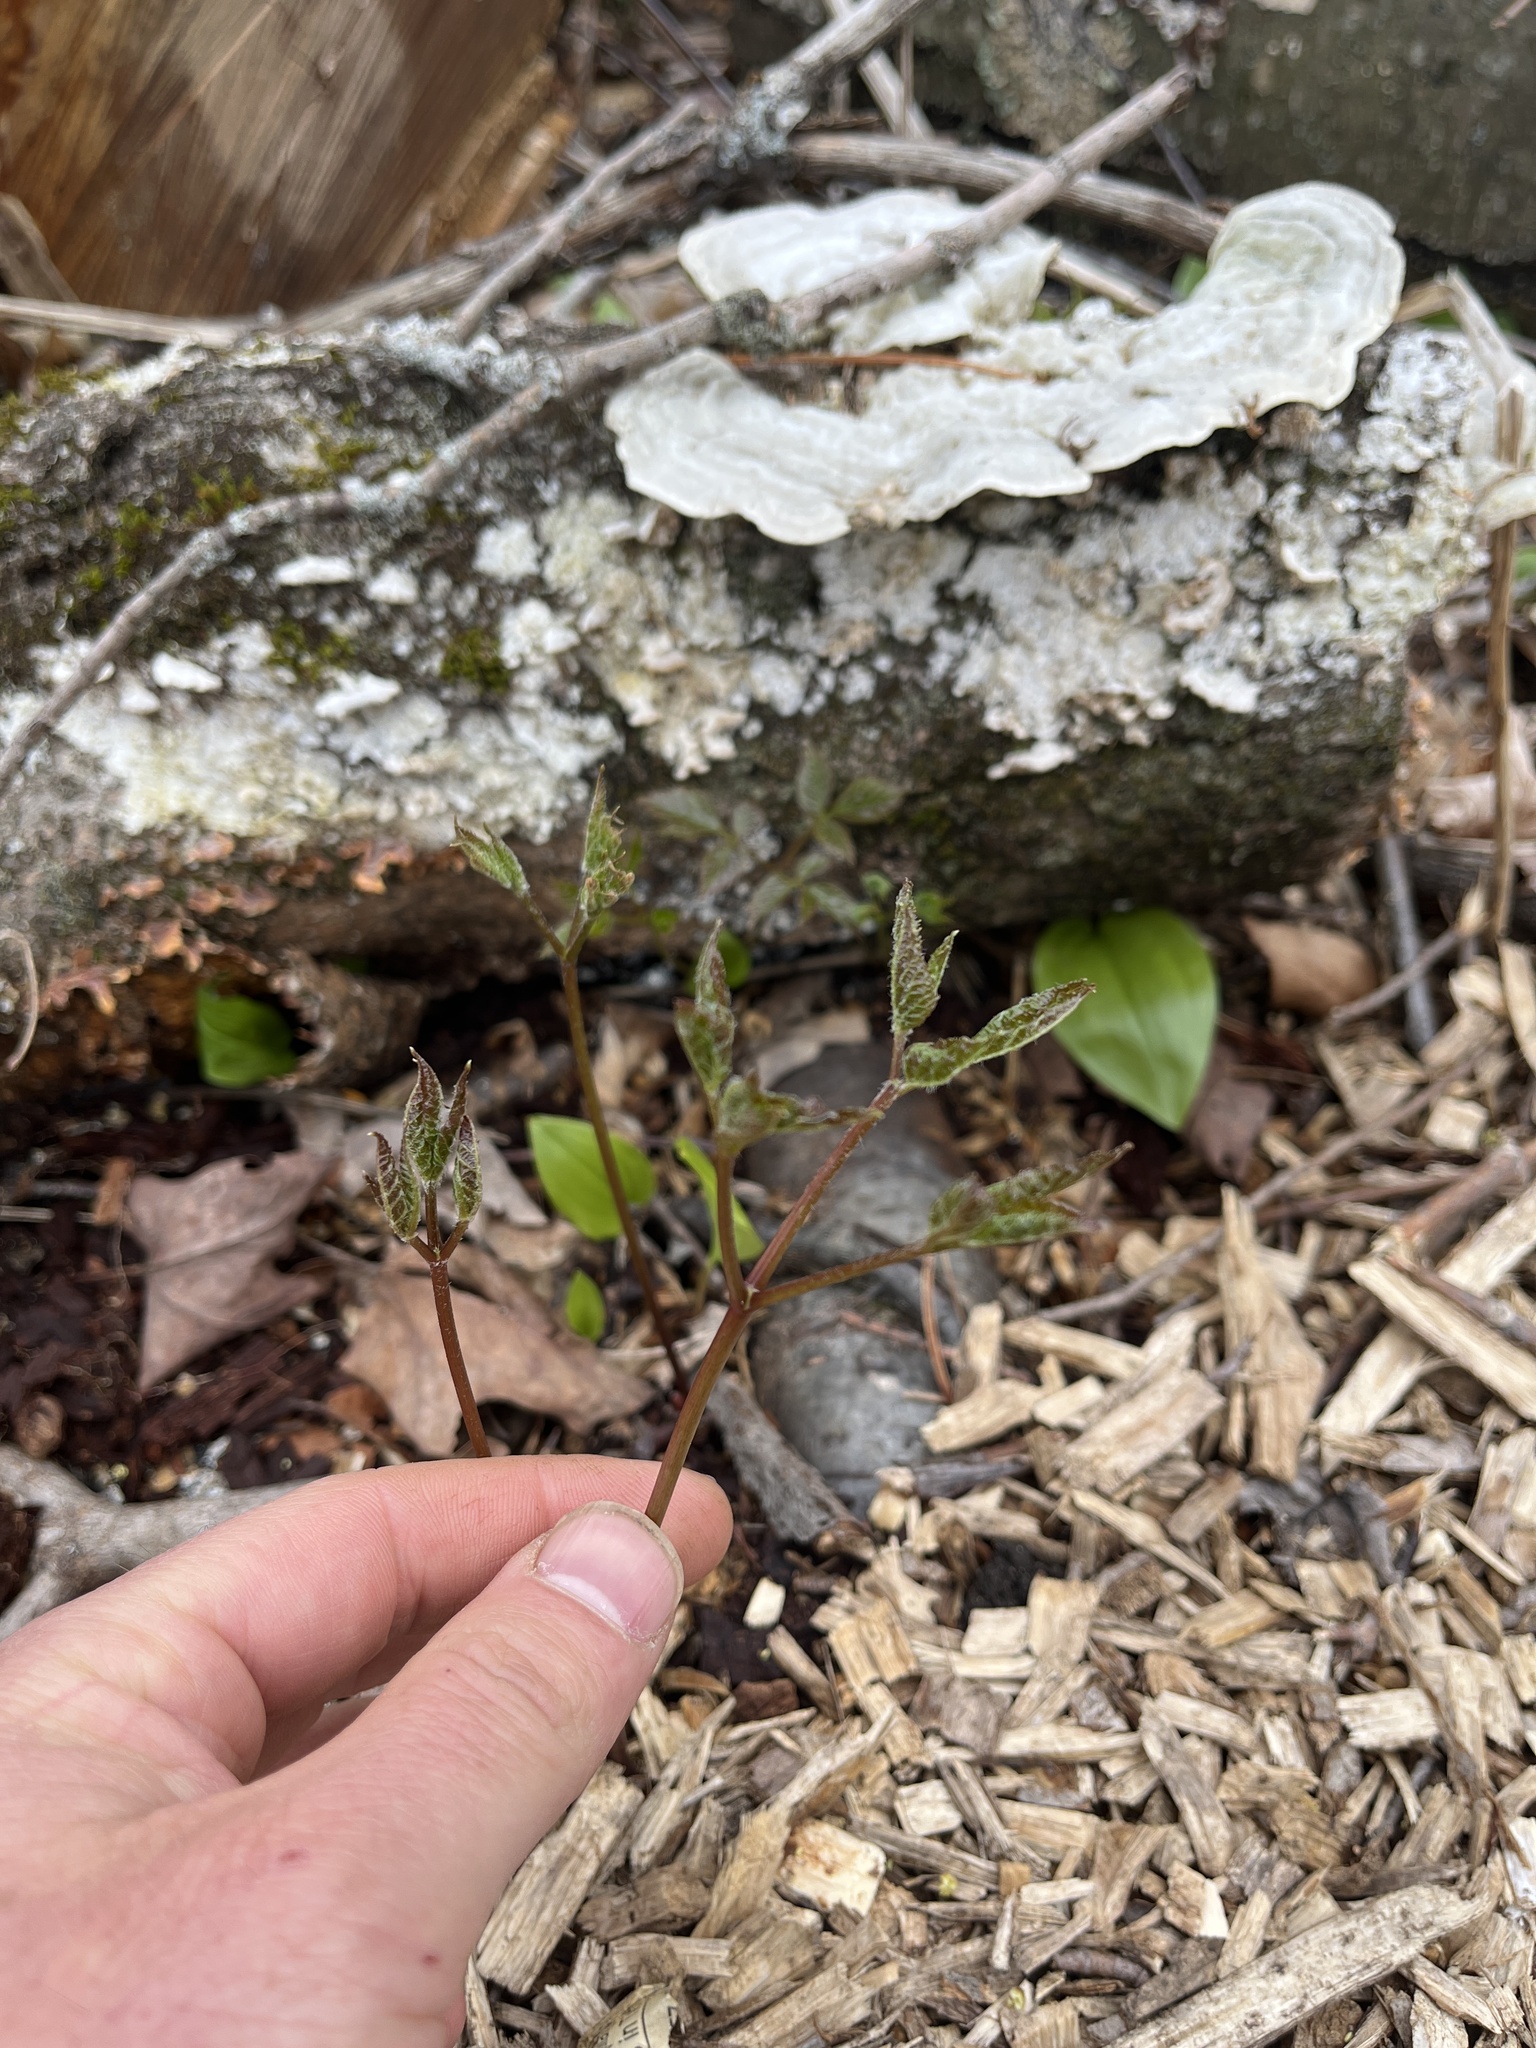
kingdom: Plantae
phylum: Tracheophyta
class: Magnoliopsida
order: Apiales
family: Araliaceae
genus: Aralia
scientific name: Aralia nudicaulis
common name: Wild sarsaparilla
